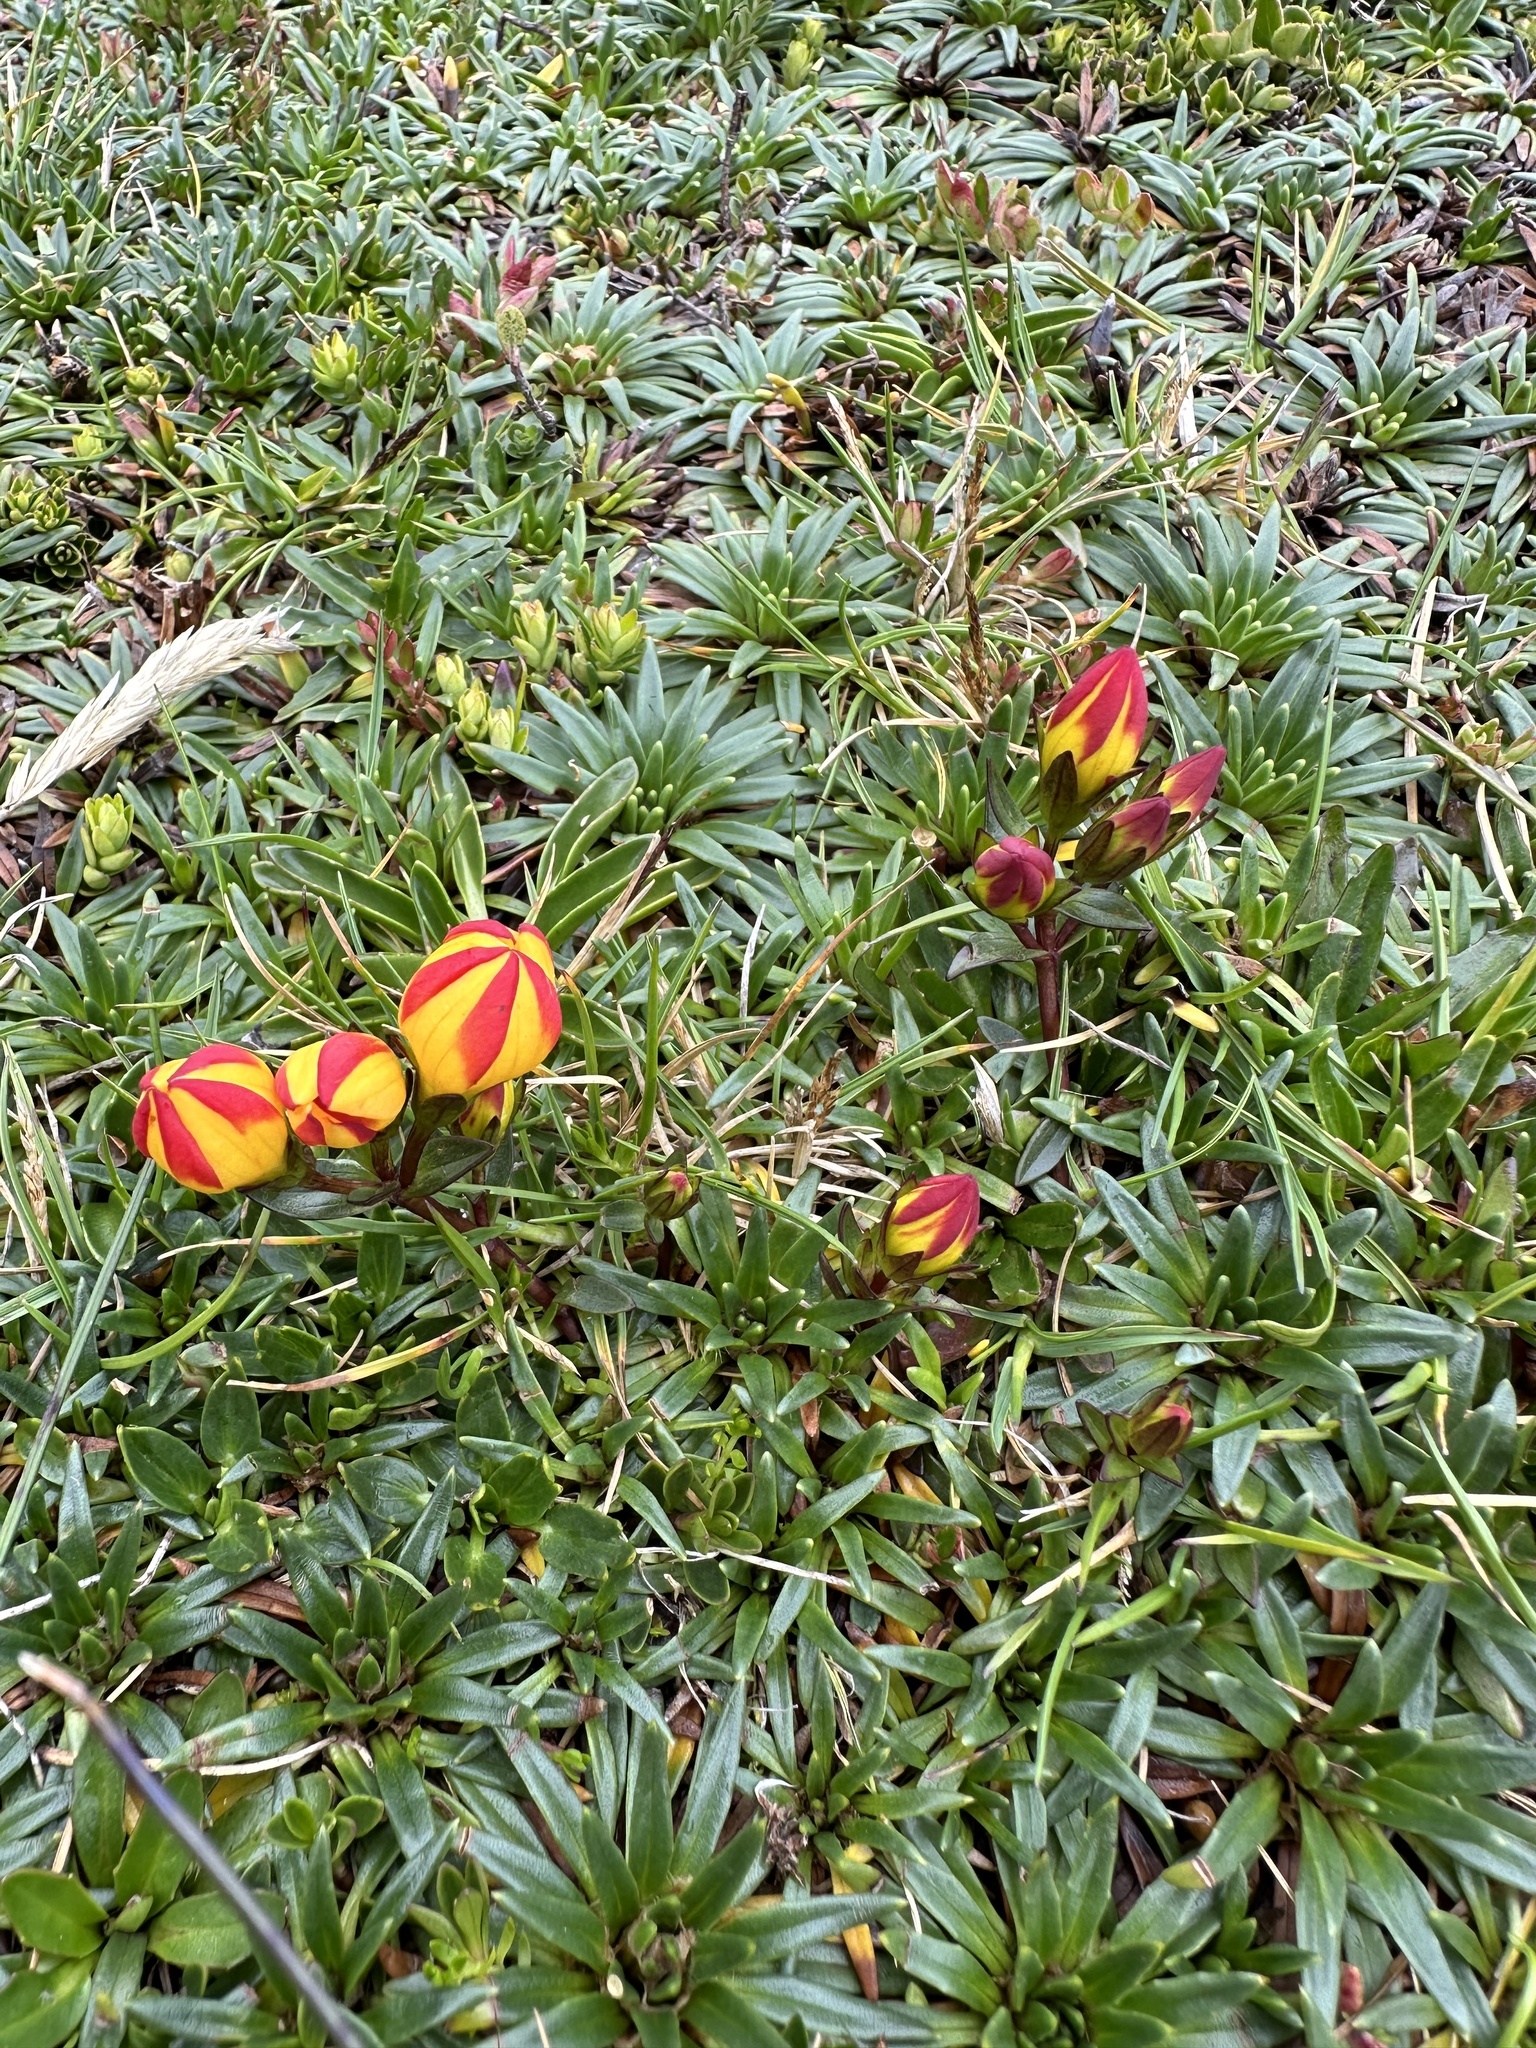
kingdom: Plantae
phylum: Tracheophyta
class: Magnoliopsida
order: Gentianales
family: Gentianaceae
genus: Gentianella
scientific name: Gentianella hirculus
